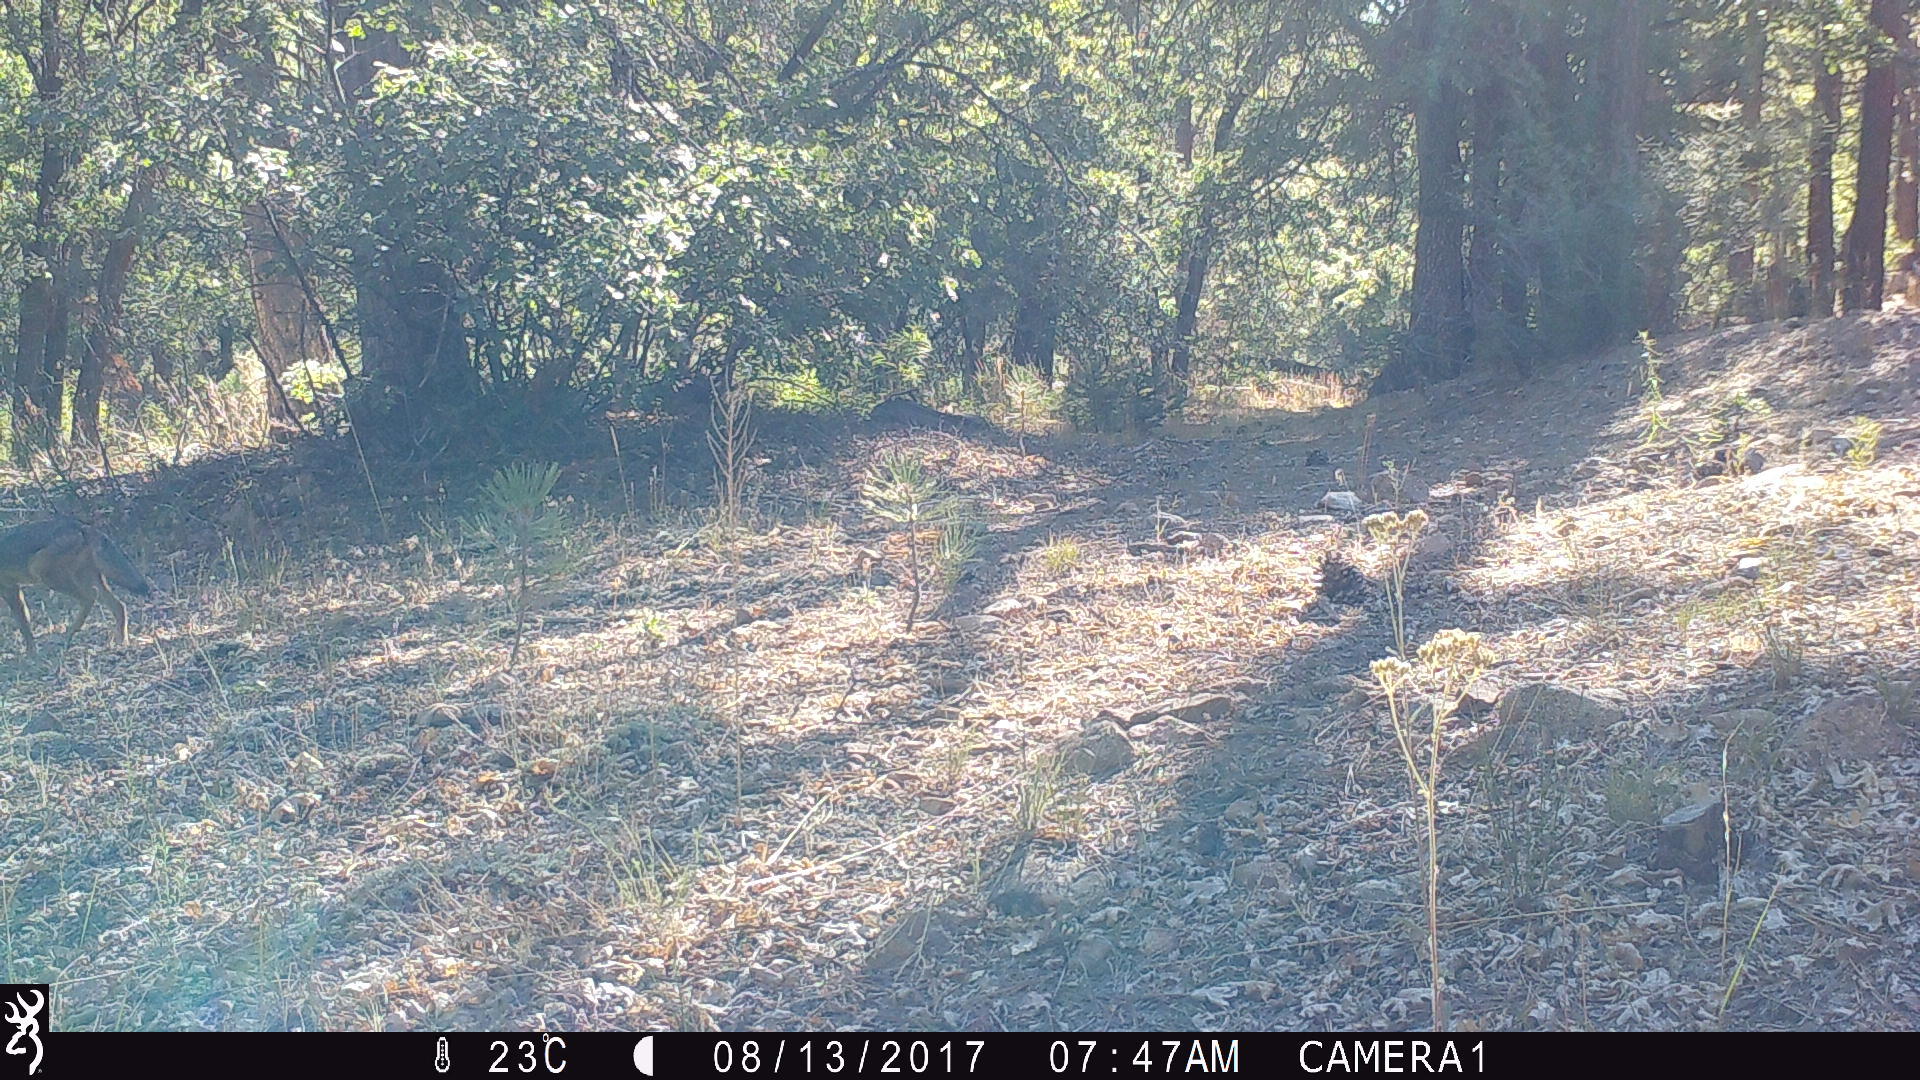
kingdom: Animalia
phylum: Chordata
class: Mammalia
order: Carnivora
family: Canidae
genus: Canis
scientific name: Canis latrans
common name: Coyote
